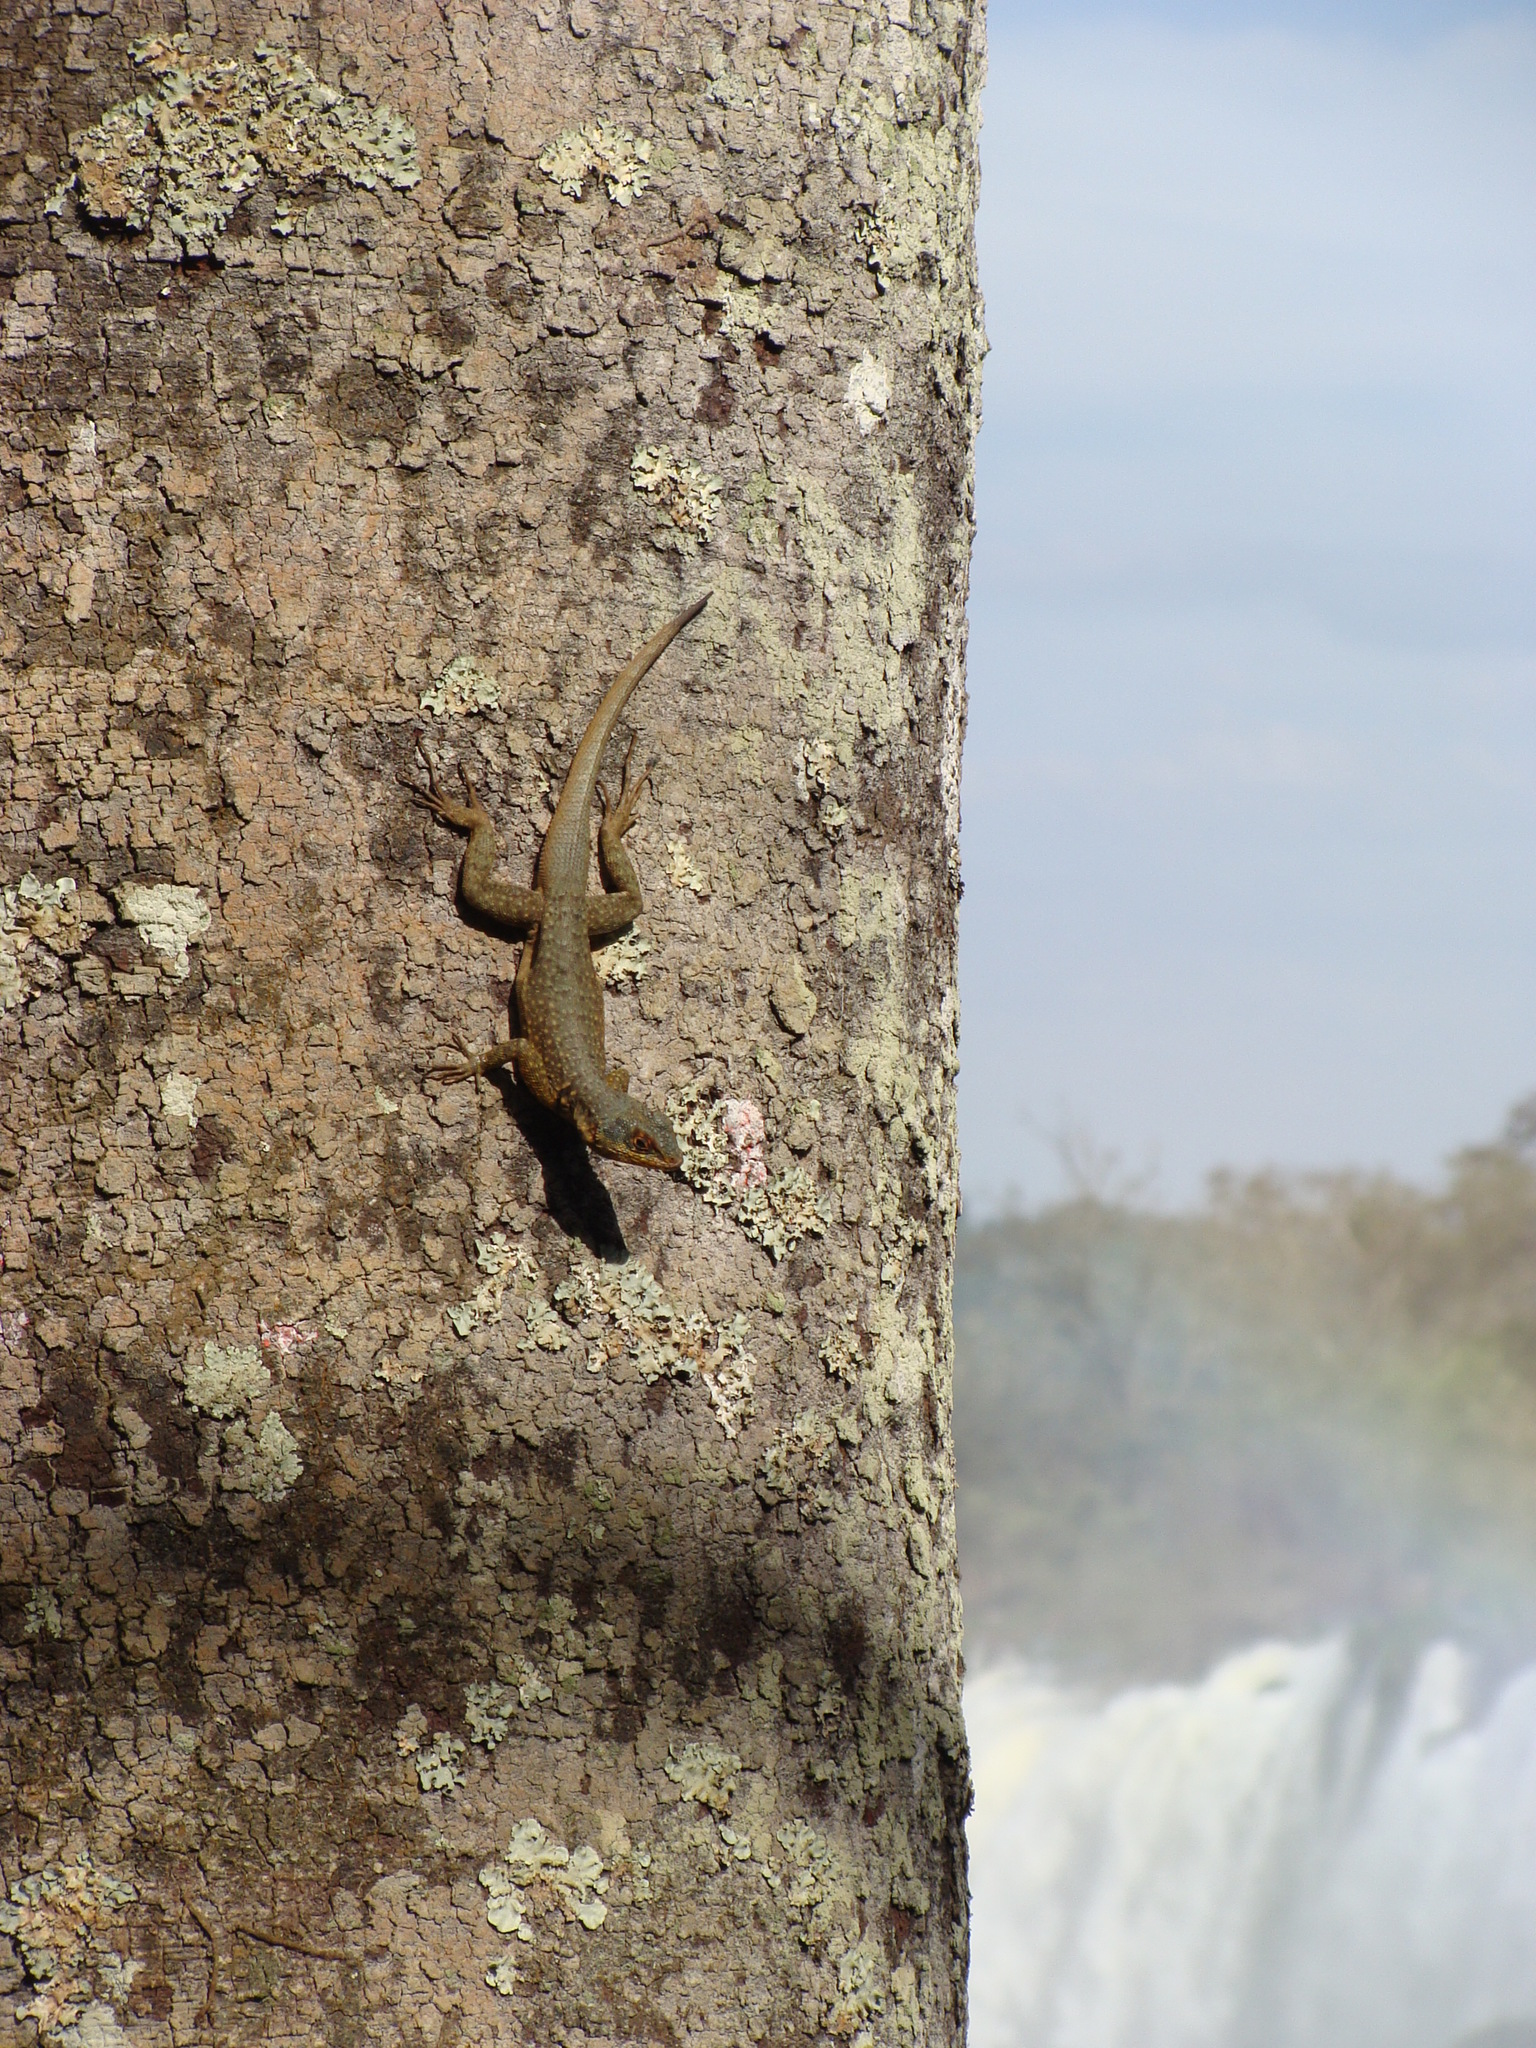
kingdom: Animalia
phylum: Chordata
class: Squamata
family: Tropiduridae
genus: Tropidurus
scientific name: Tropidurus catalanensis
